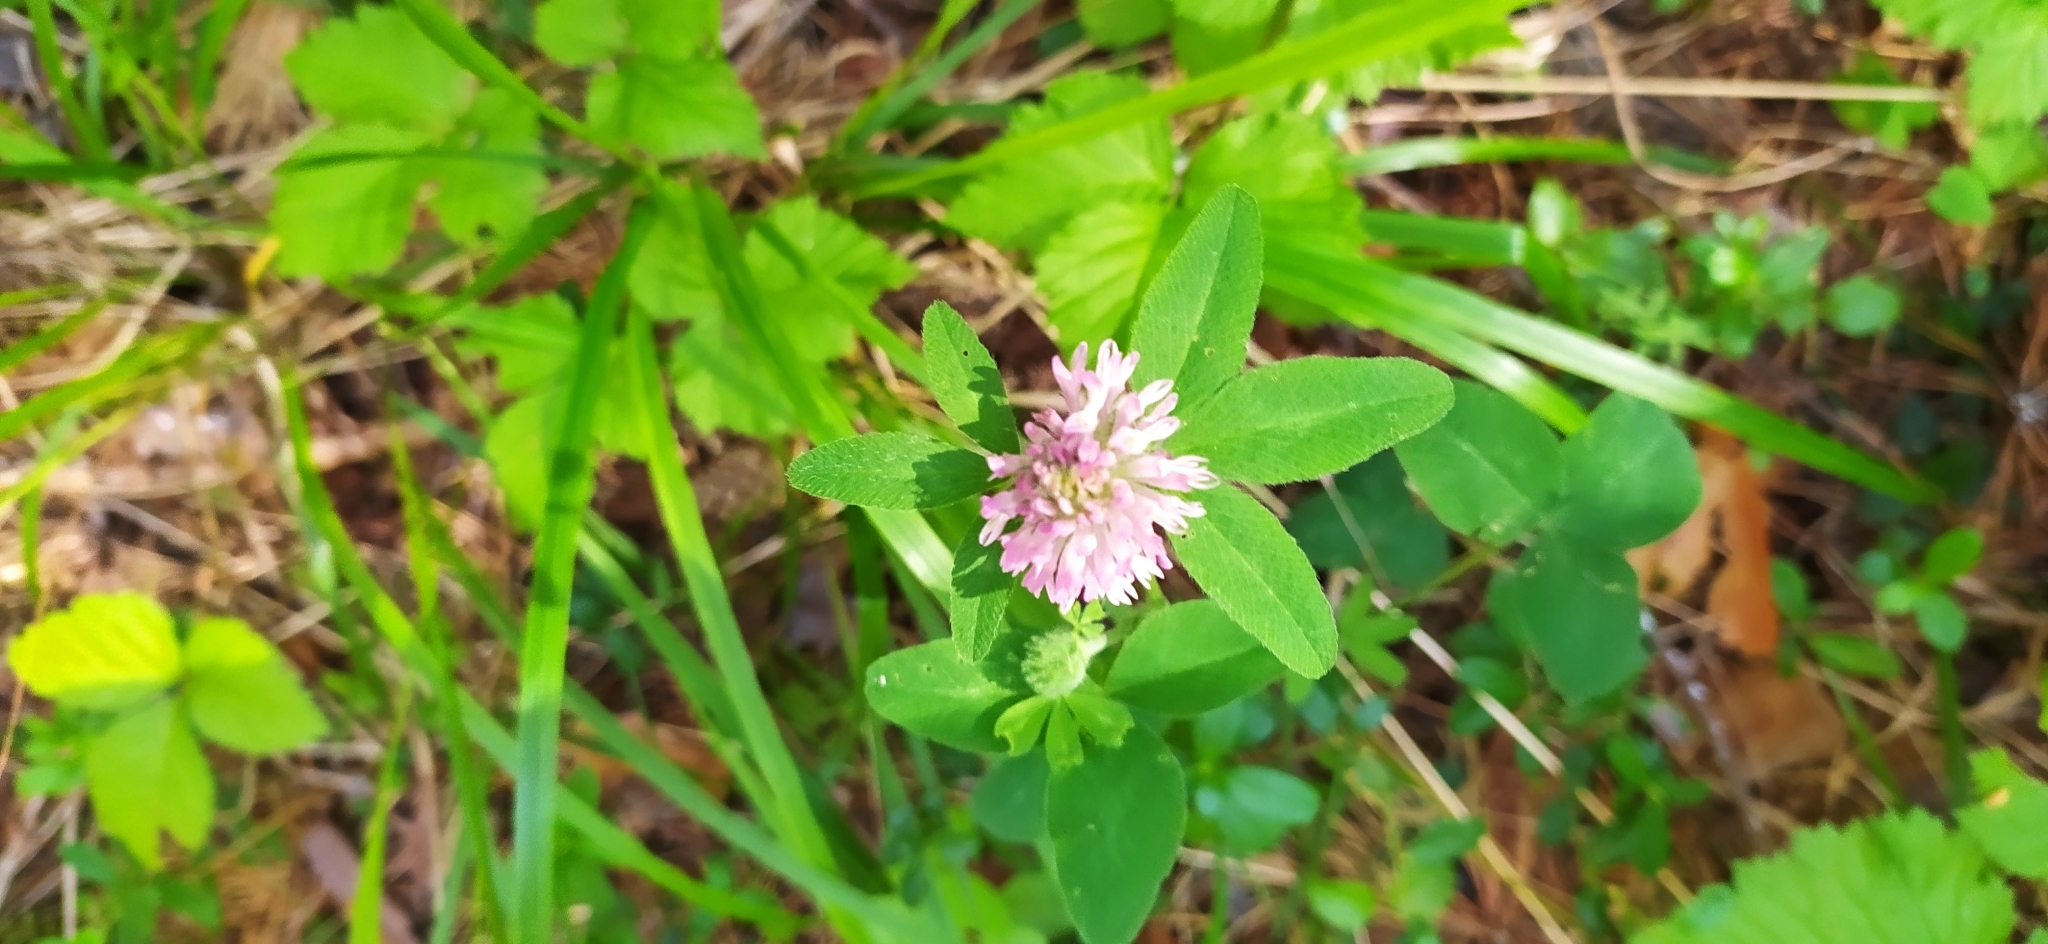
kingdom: Plantae
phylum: Tracheophyta
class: Magnoliopsida
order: Fabales
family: Fabaceae
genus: Trifolium
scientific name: Trifolium pratense
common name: Red clover
